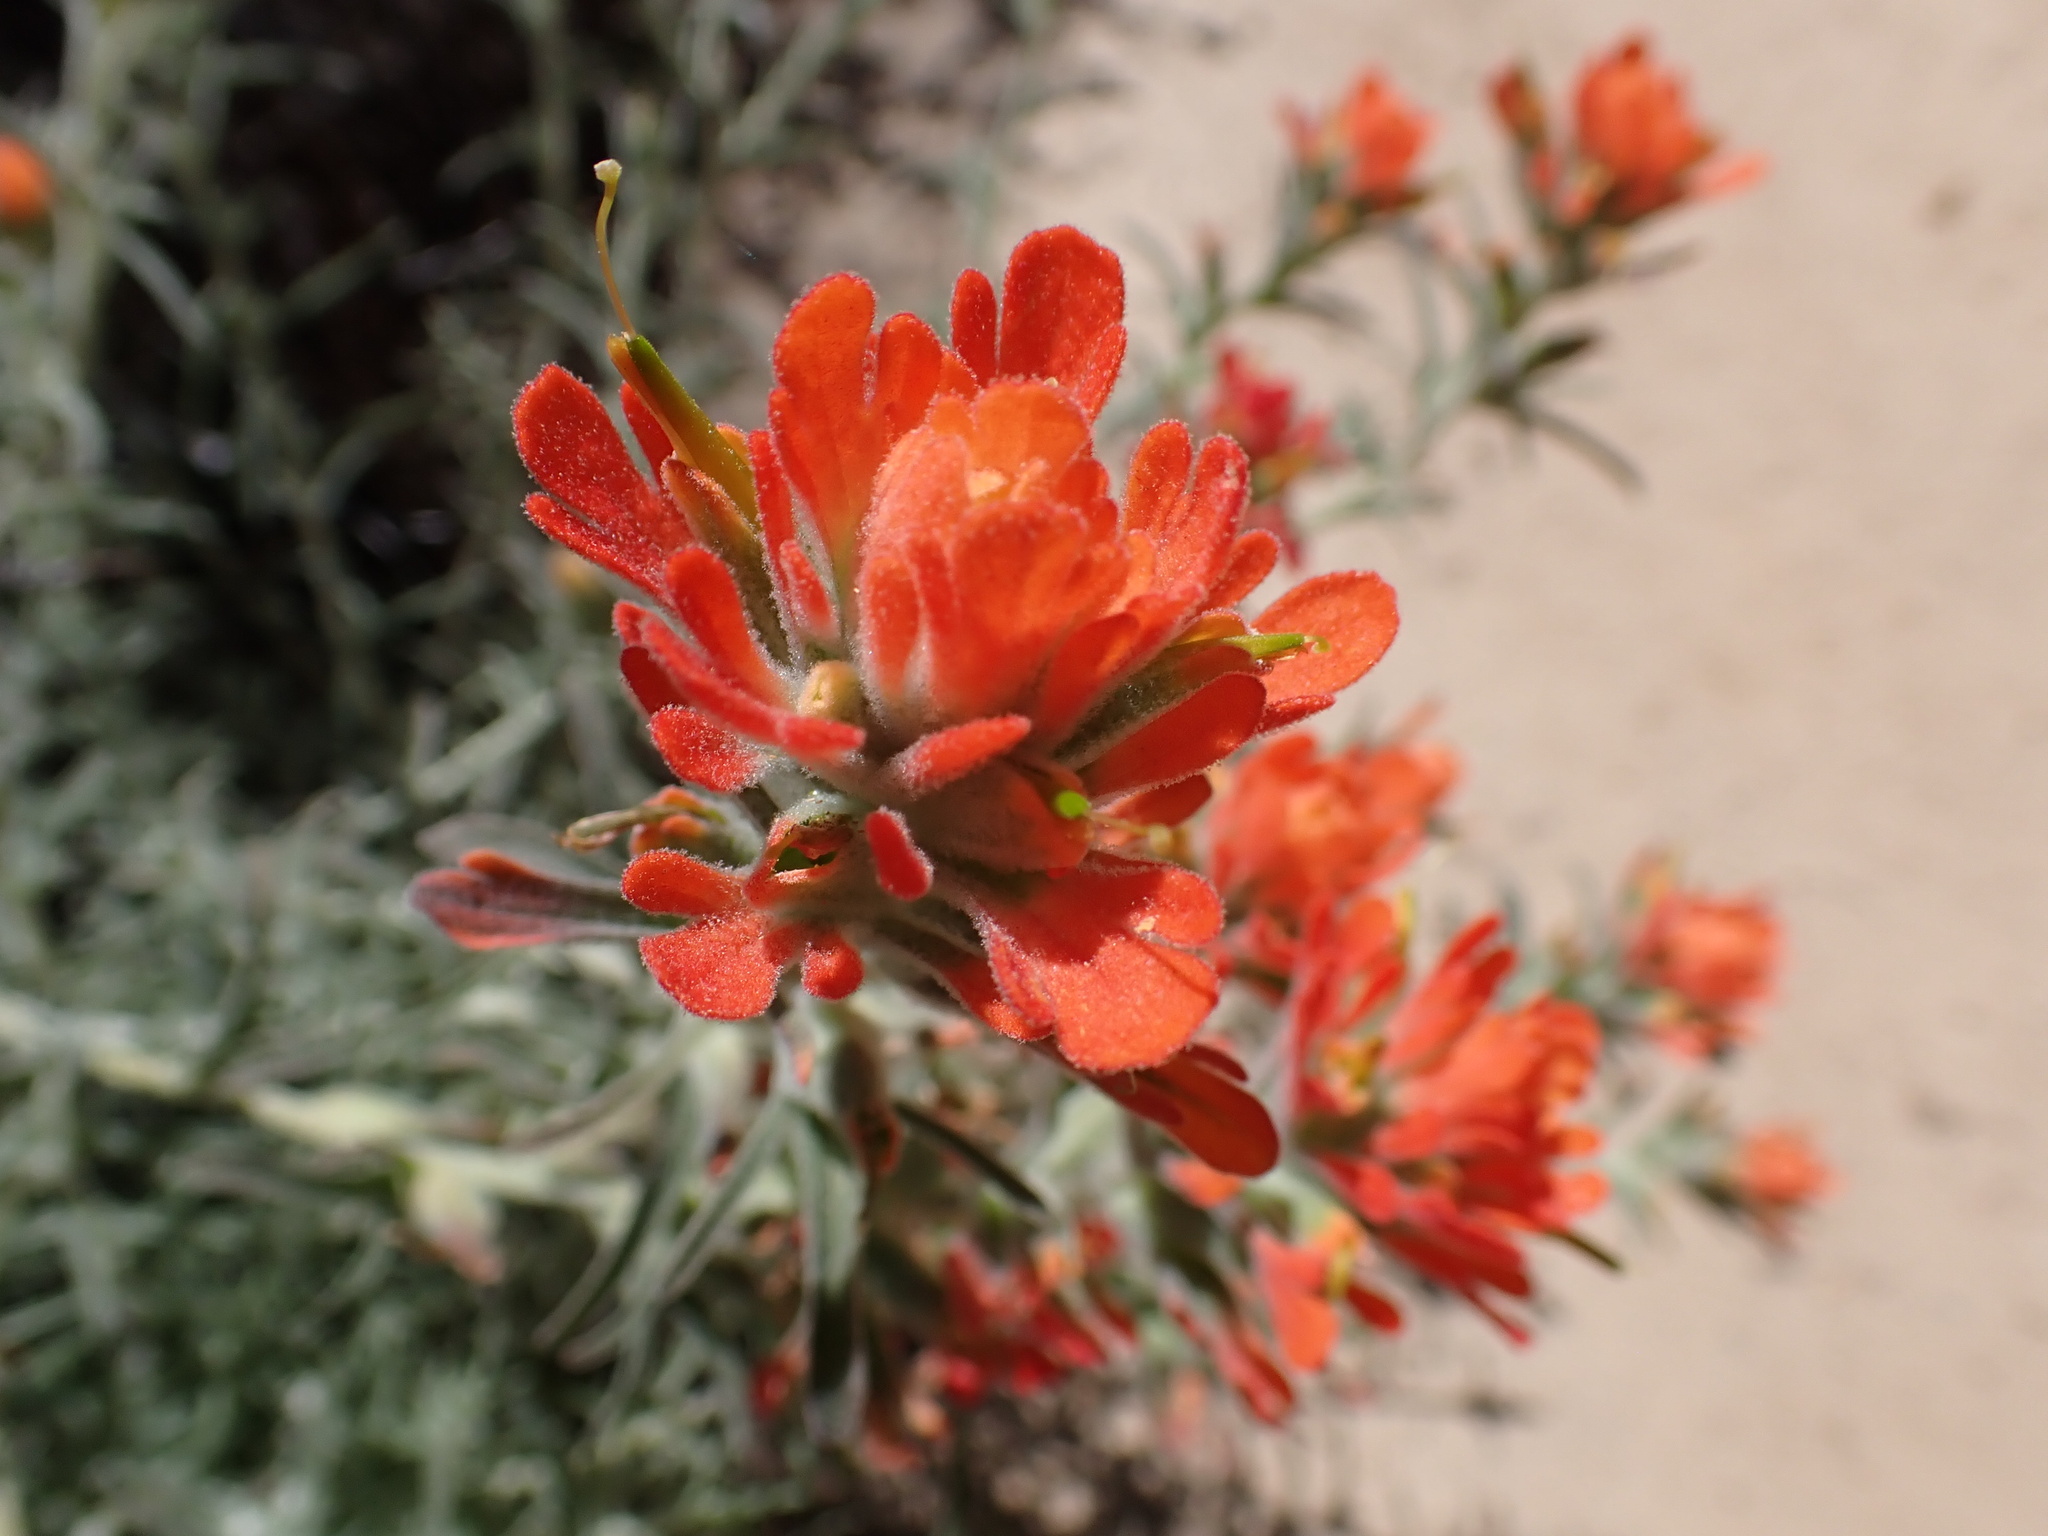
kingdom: Plantae
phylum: Tracheophyta
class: Magnoliopsida
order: Lamiales
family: Orobanchaceae
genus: Castilleja
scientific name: Castilleja foliolosa
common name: Woolly indian paintbrush
